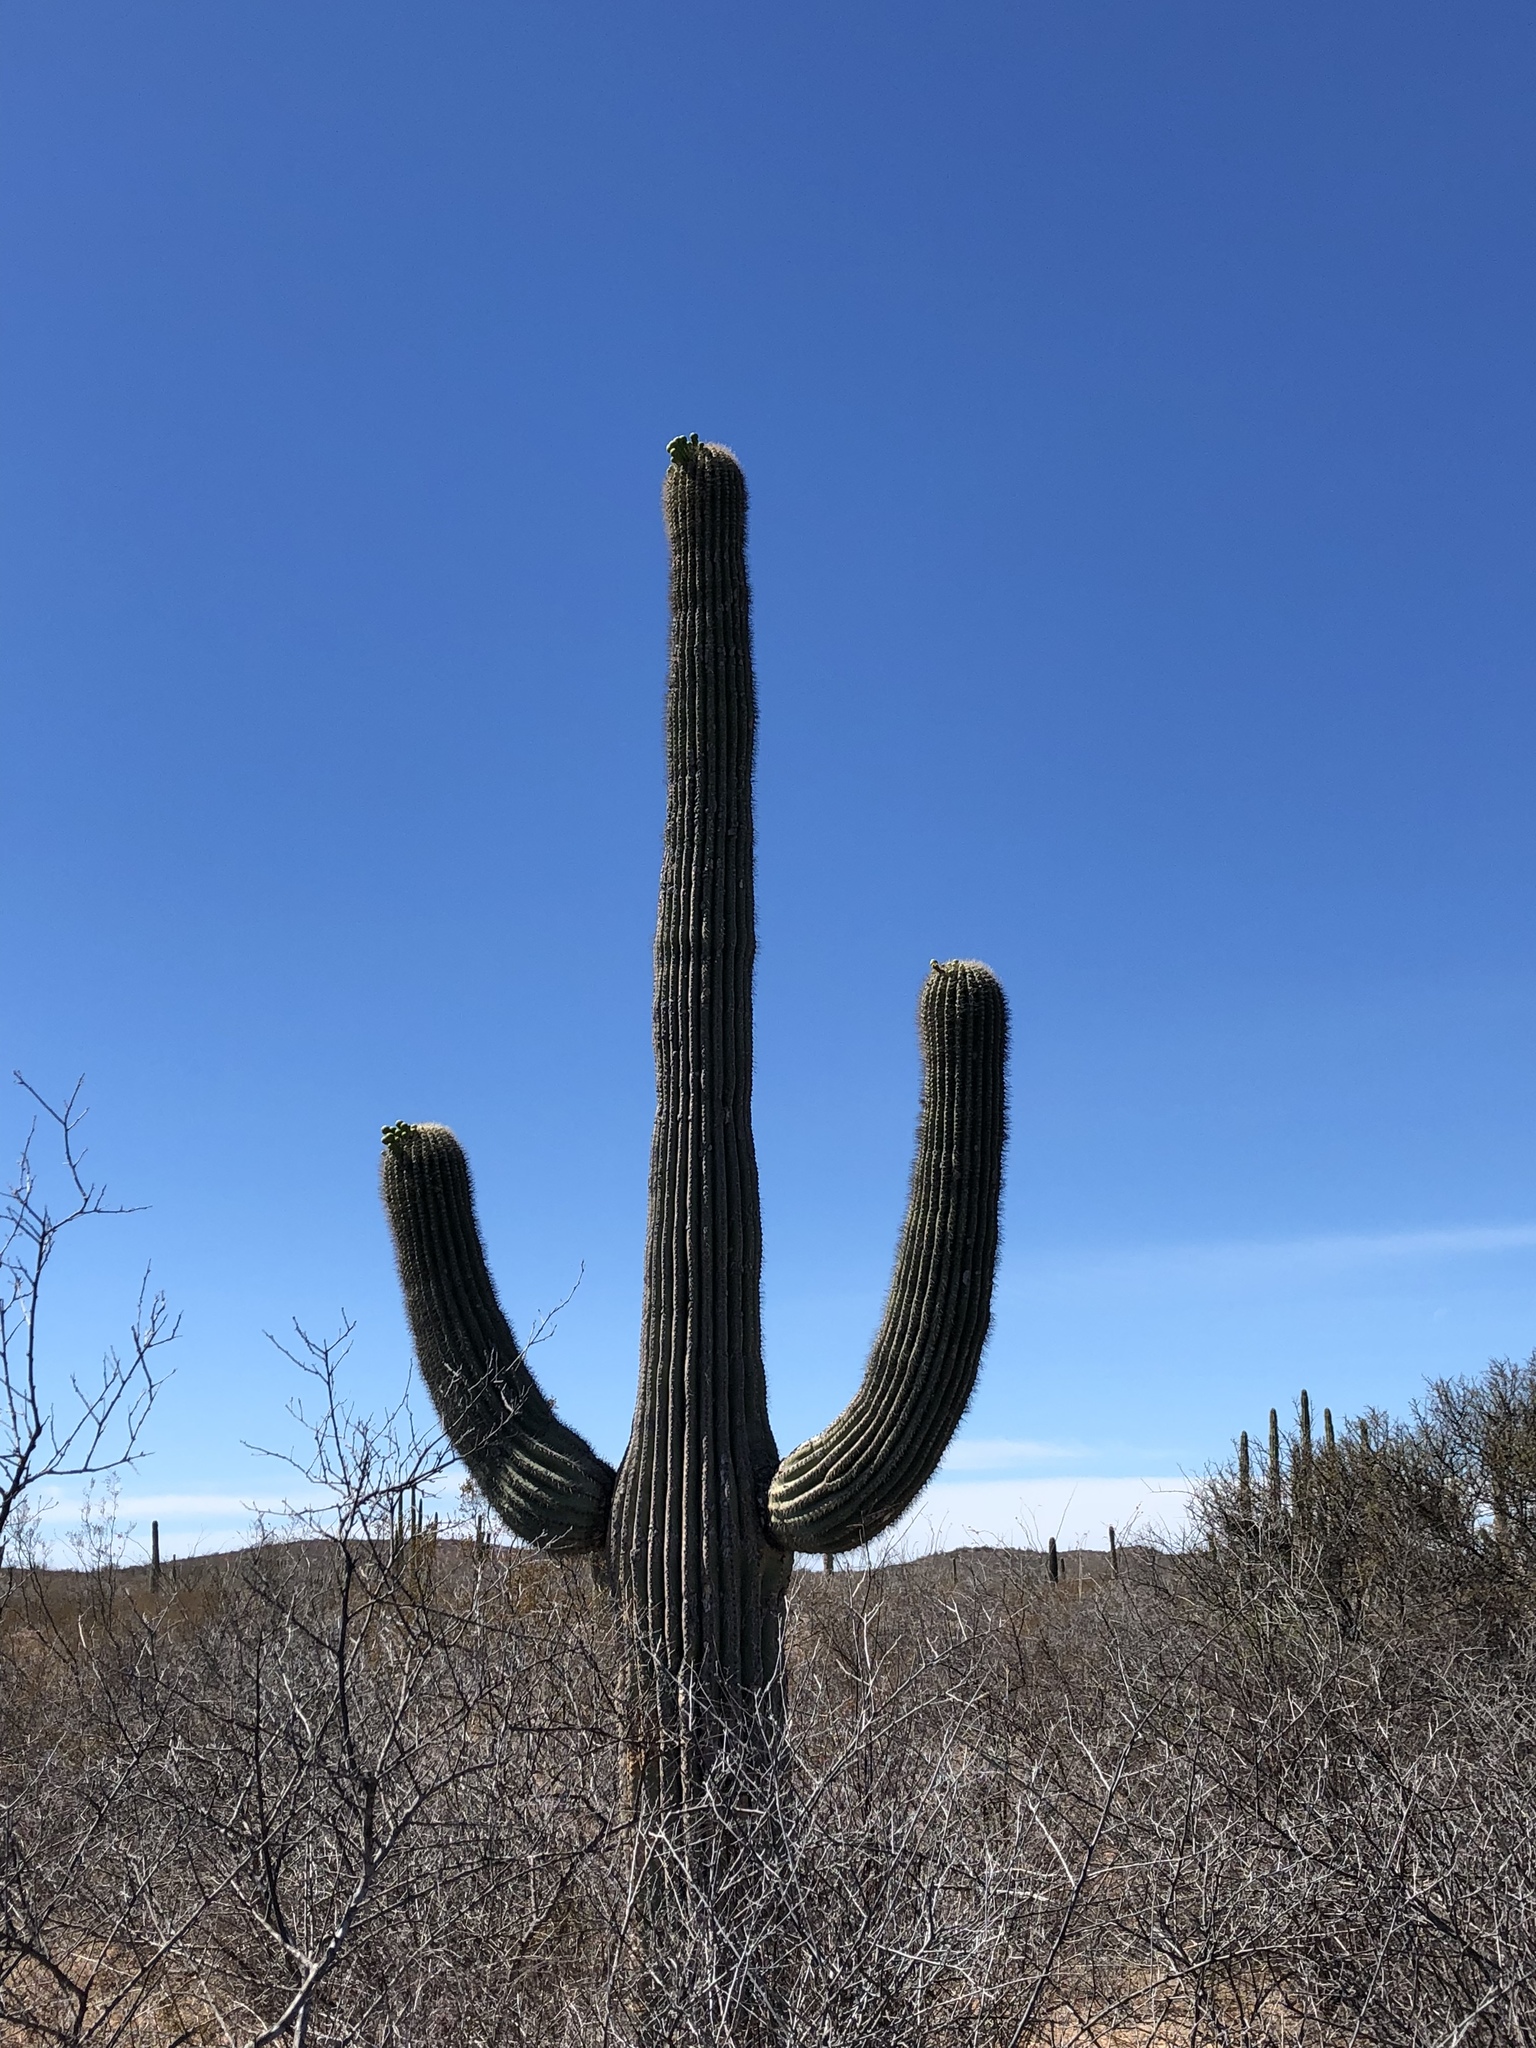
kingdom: Plantae
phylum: Tracheophyta
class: Magnoliopsida
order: Caryophyllales
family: Cactaceae
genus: Carnegiea
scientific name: Carnegiea gigantea
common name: Saguaro
